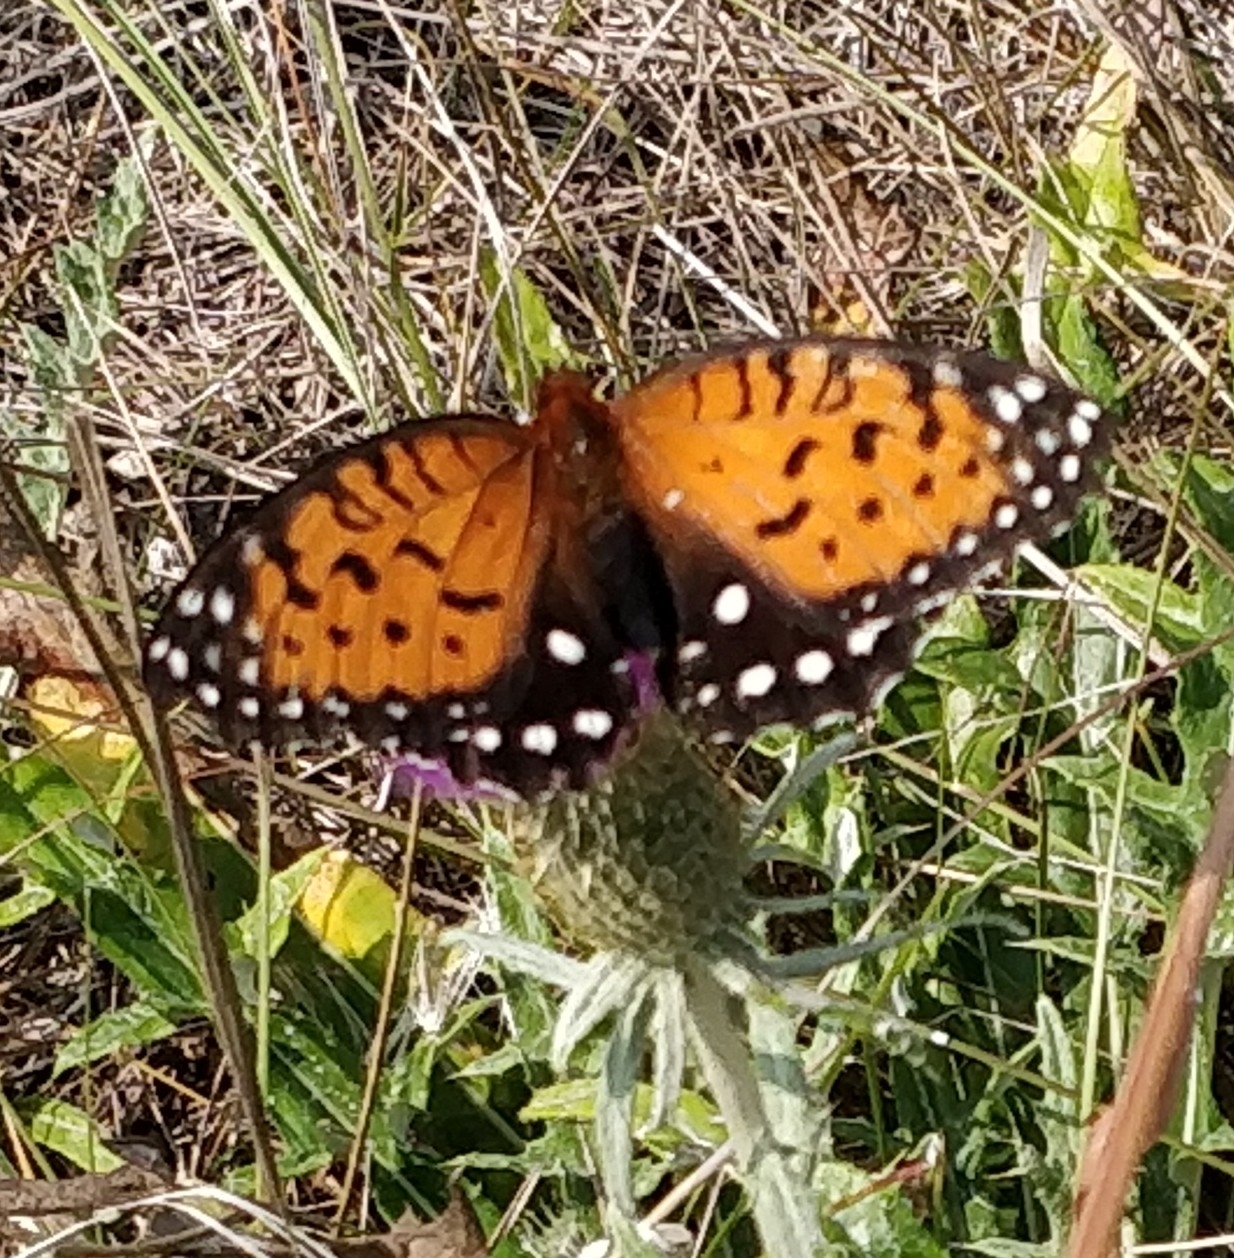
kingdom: Animalia
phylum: Arthropoda
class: Insecta
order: Lepidoptera
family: Nymphalidae
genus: Speyeria
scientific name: Speyeria idalia
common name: Regal fritillary
